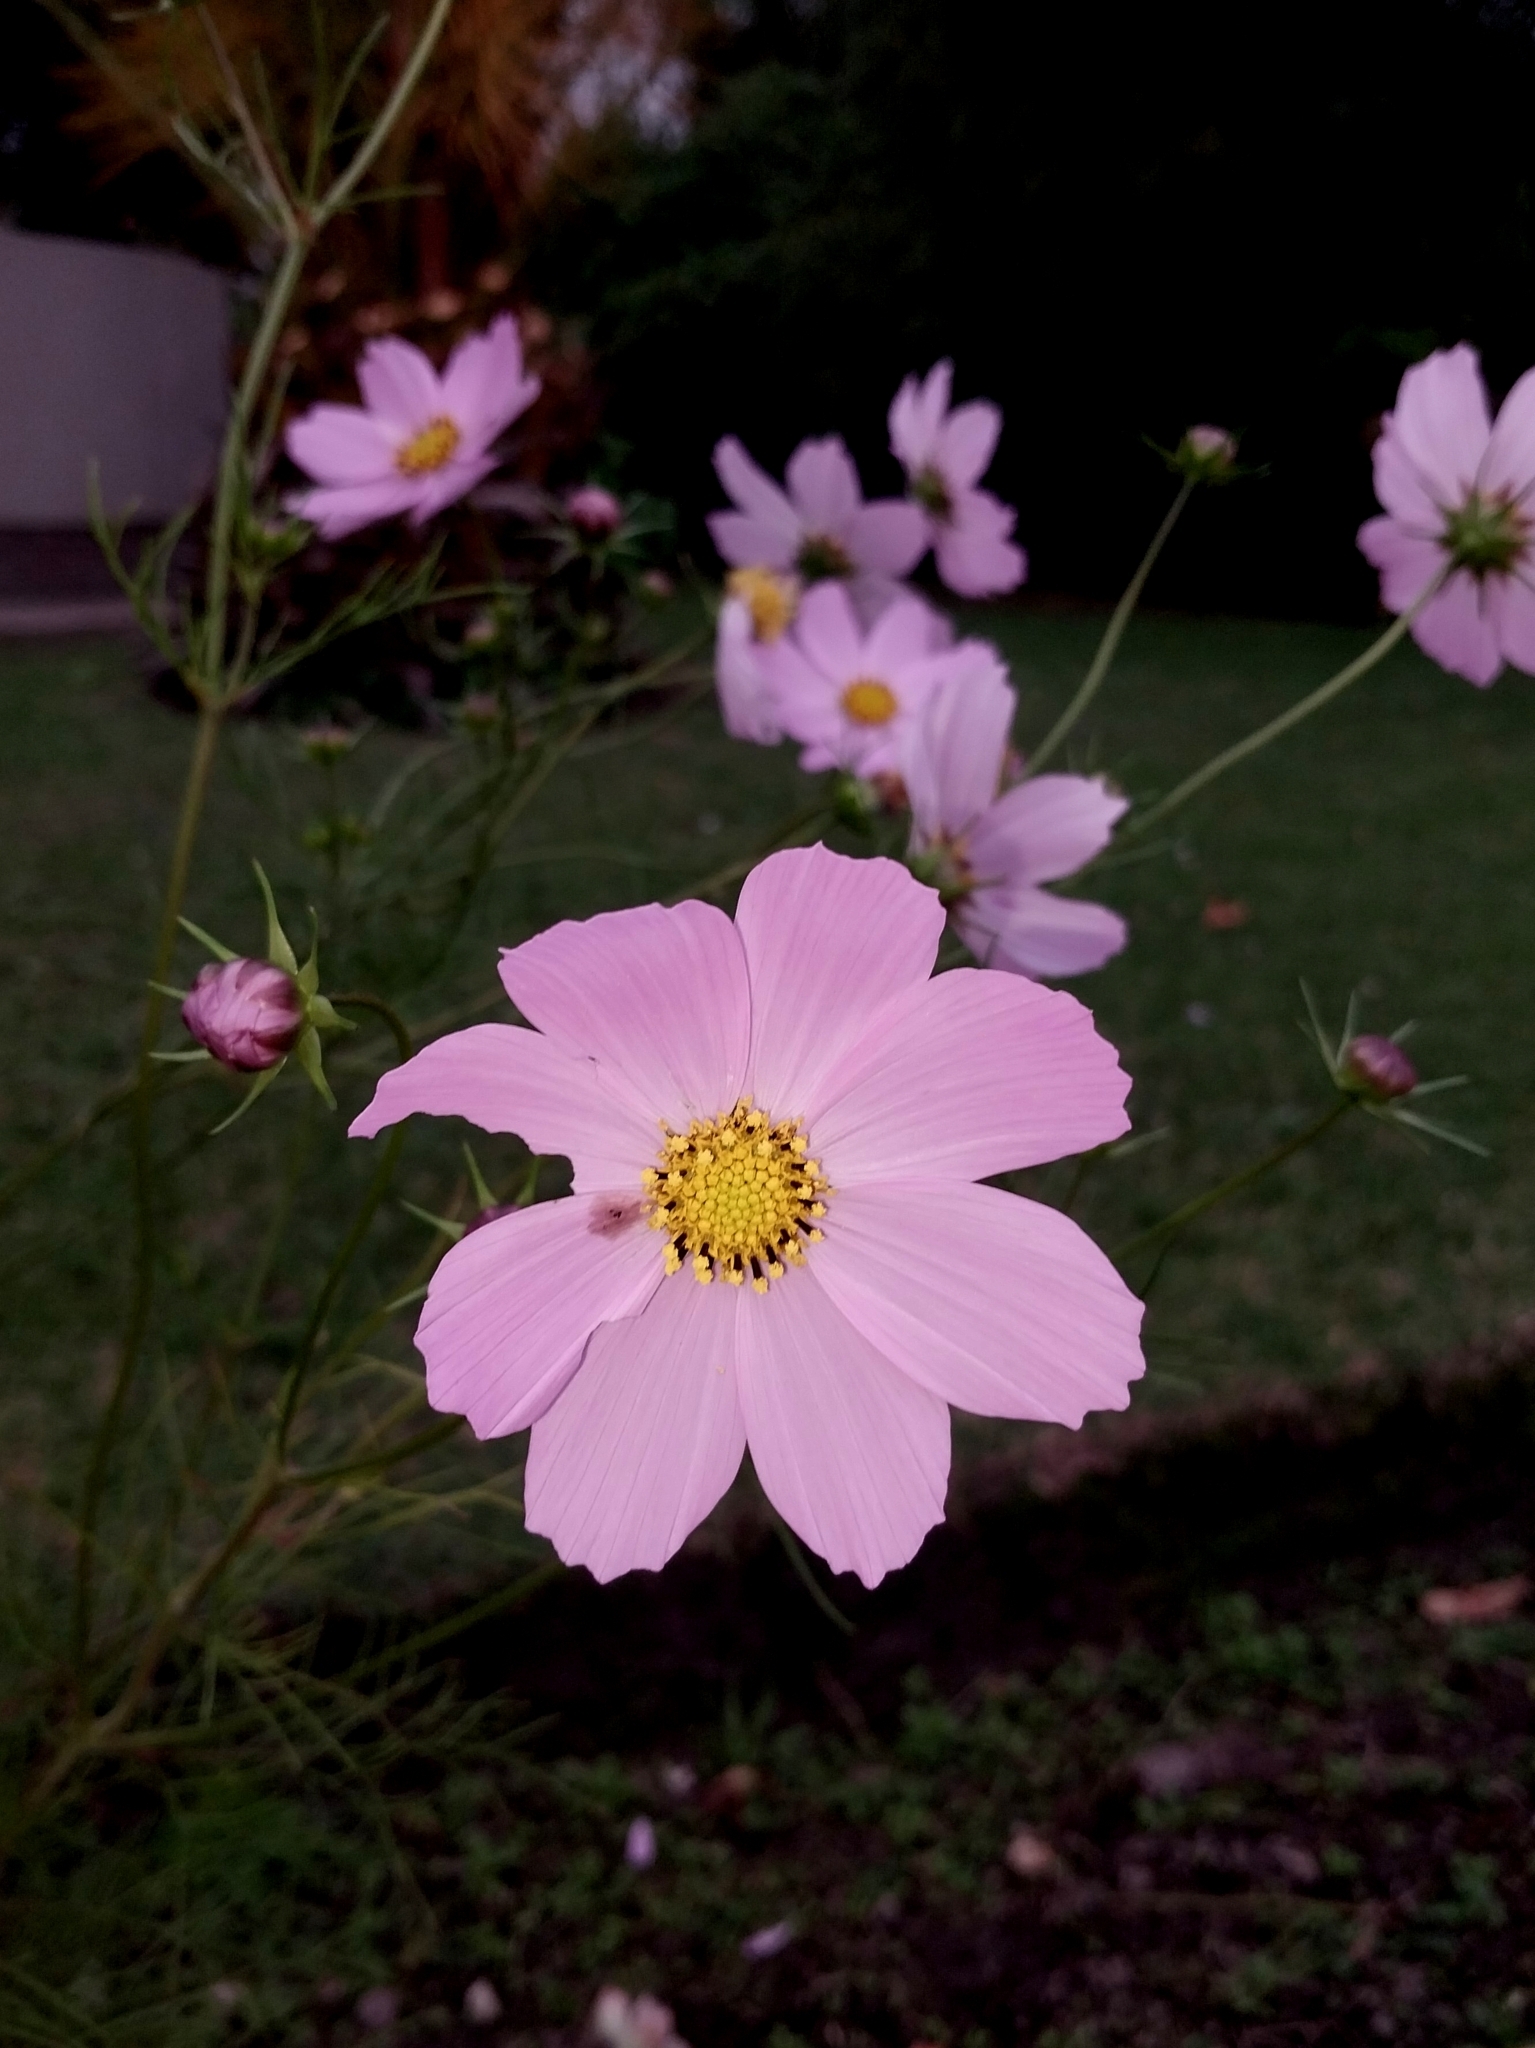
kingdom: Plantae
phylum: Tracheophyta
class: Magnoliopsida
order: Asterales
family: Asteraceae
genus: Cosmos
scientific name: Cosmos bipinnatus
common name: Garden cosmos
